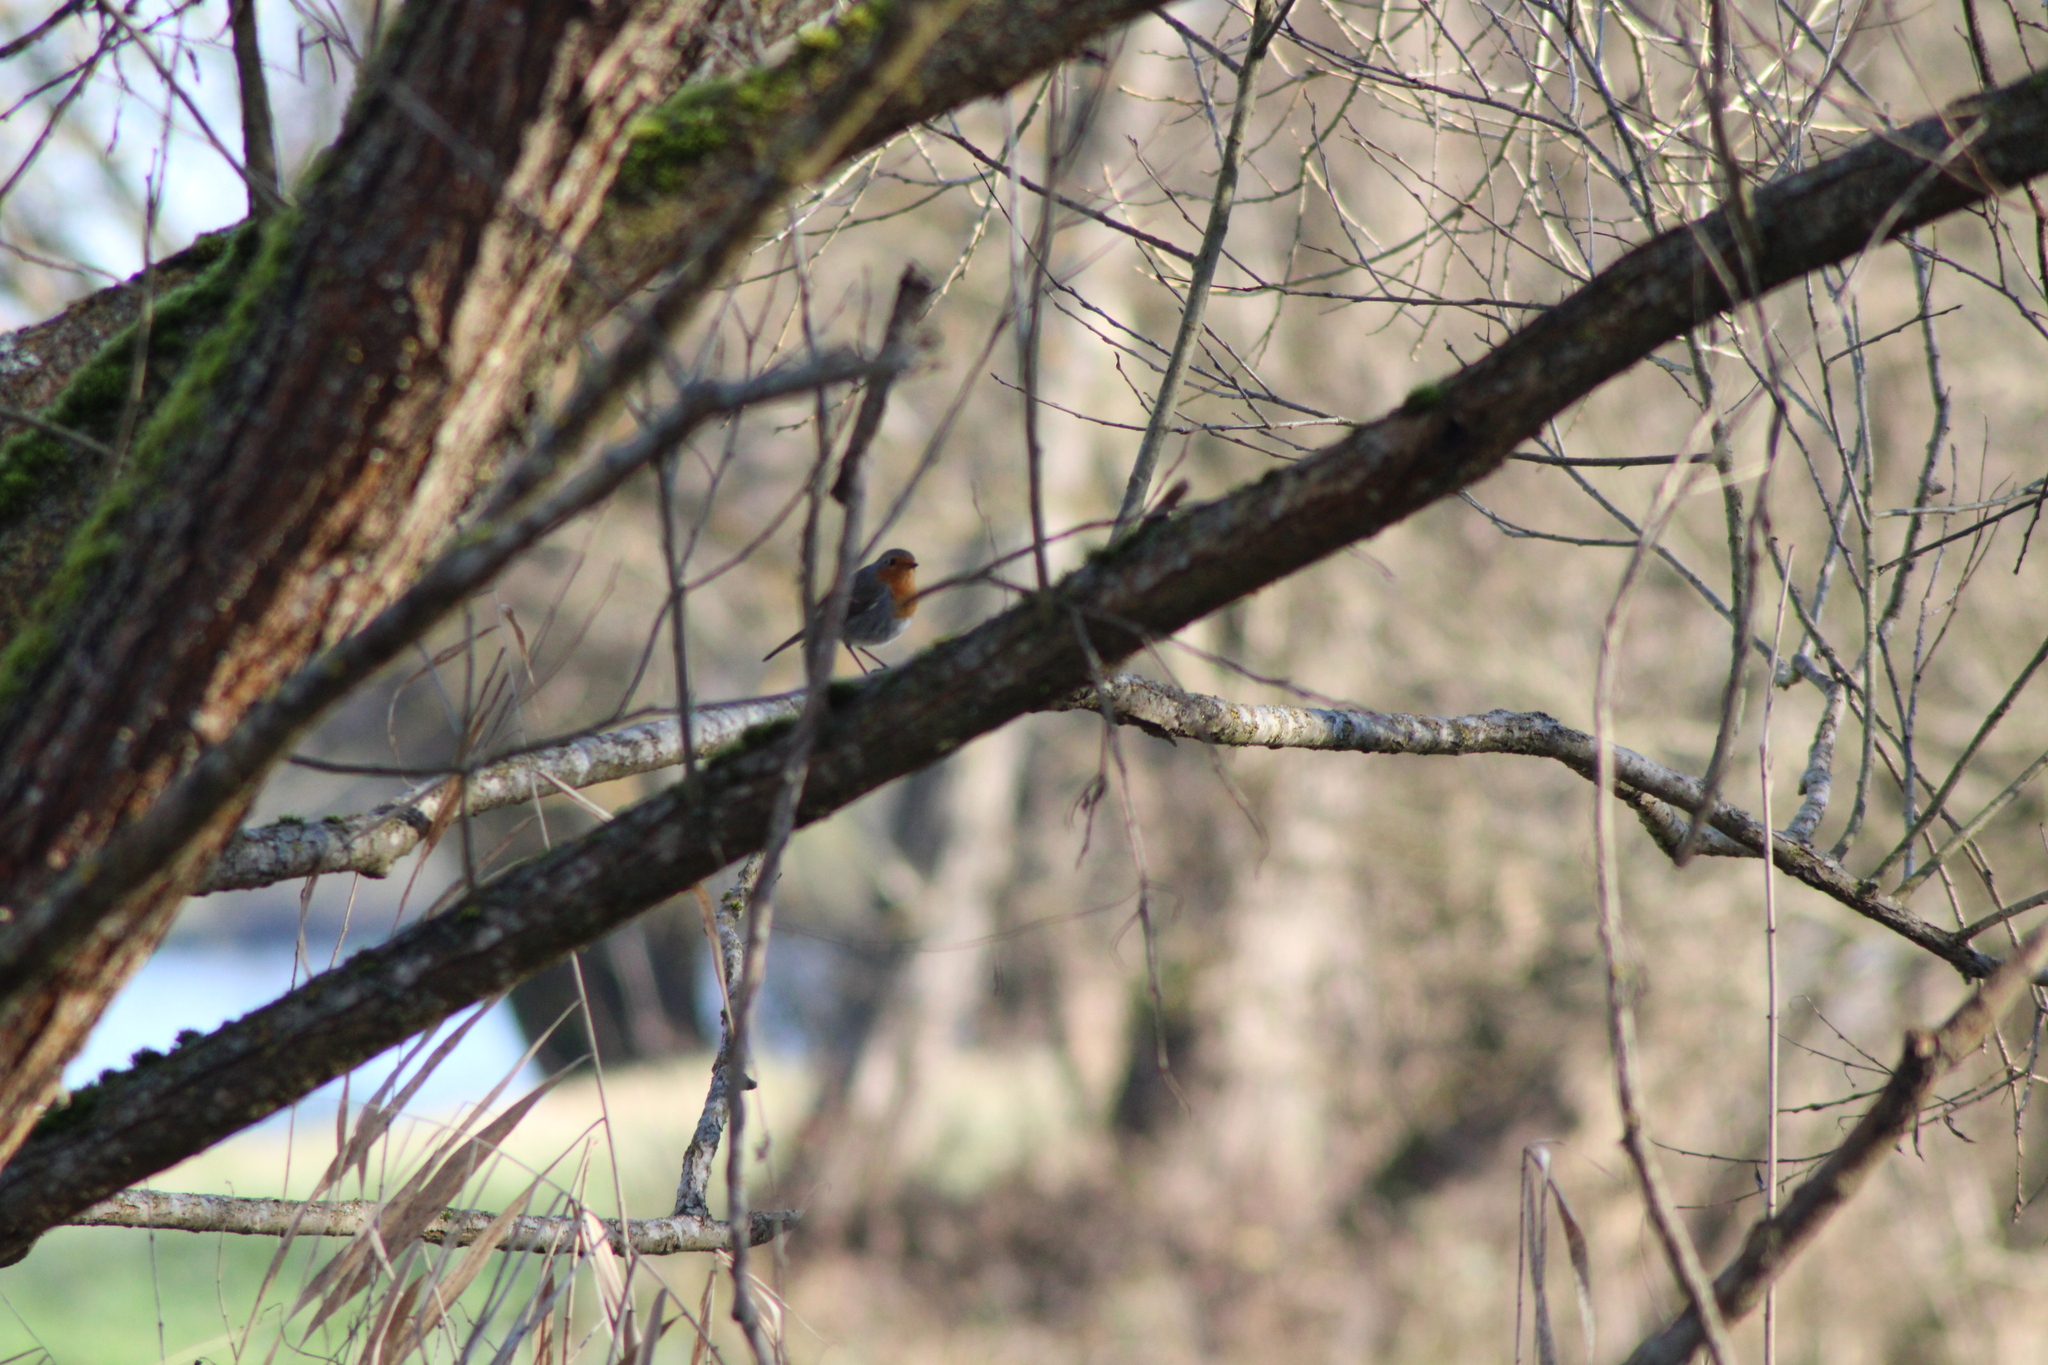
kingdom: Animalia
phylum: Chordata
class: Aves
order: Passeriformes
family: Muscicapidae
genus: Erithacus
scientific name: Erithacus rubecula
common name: European robin
